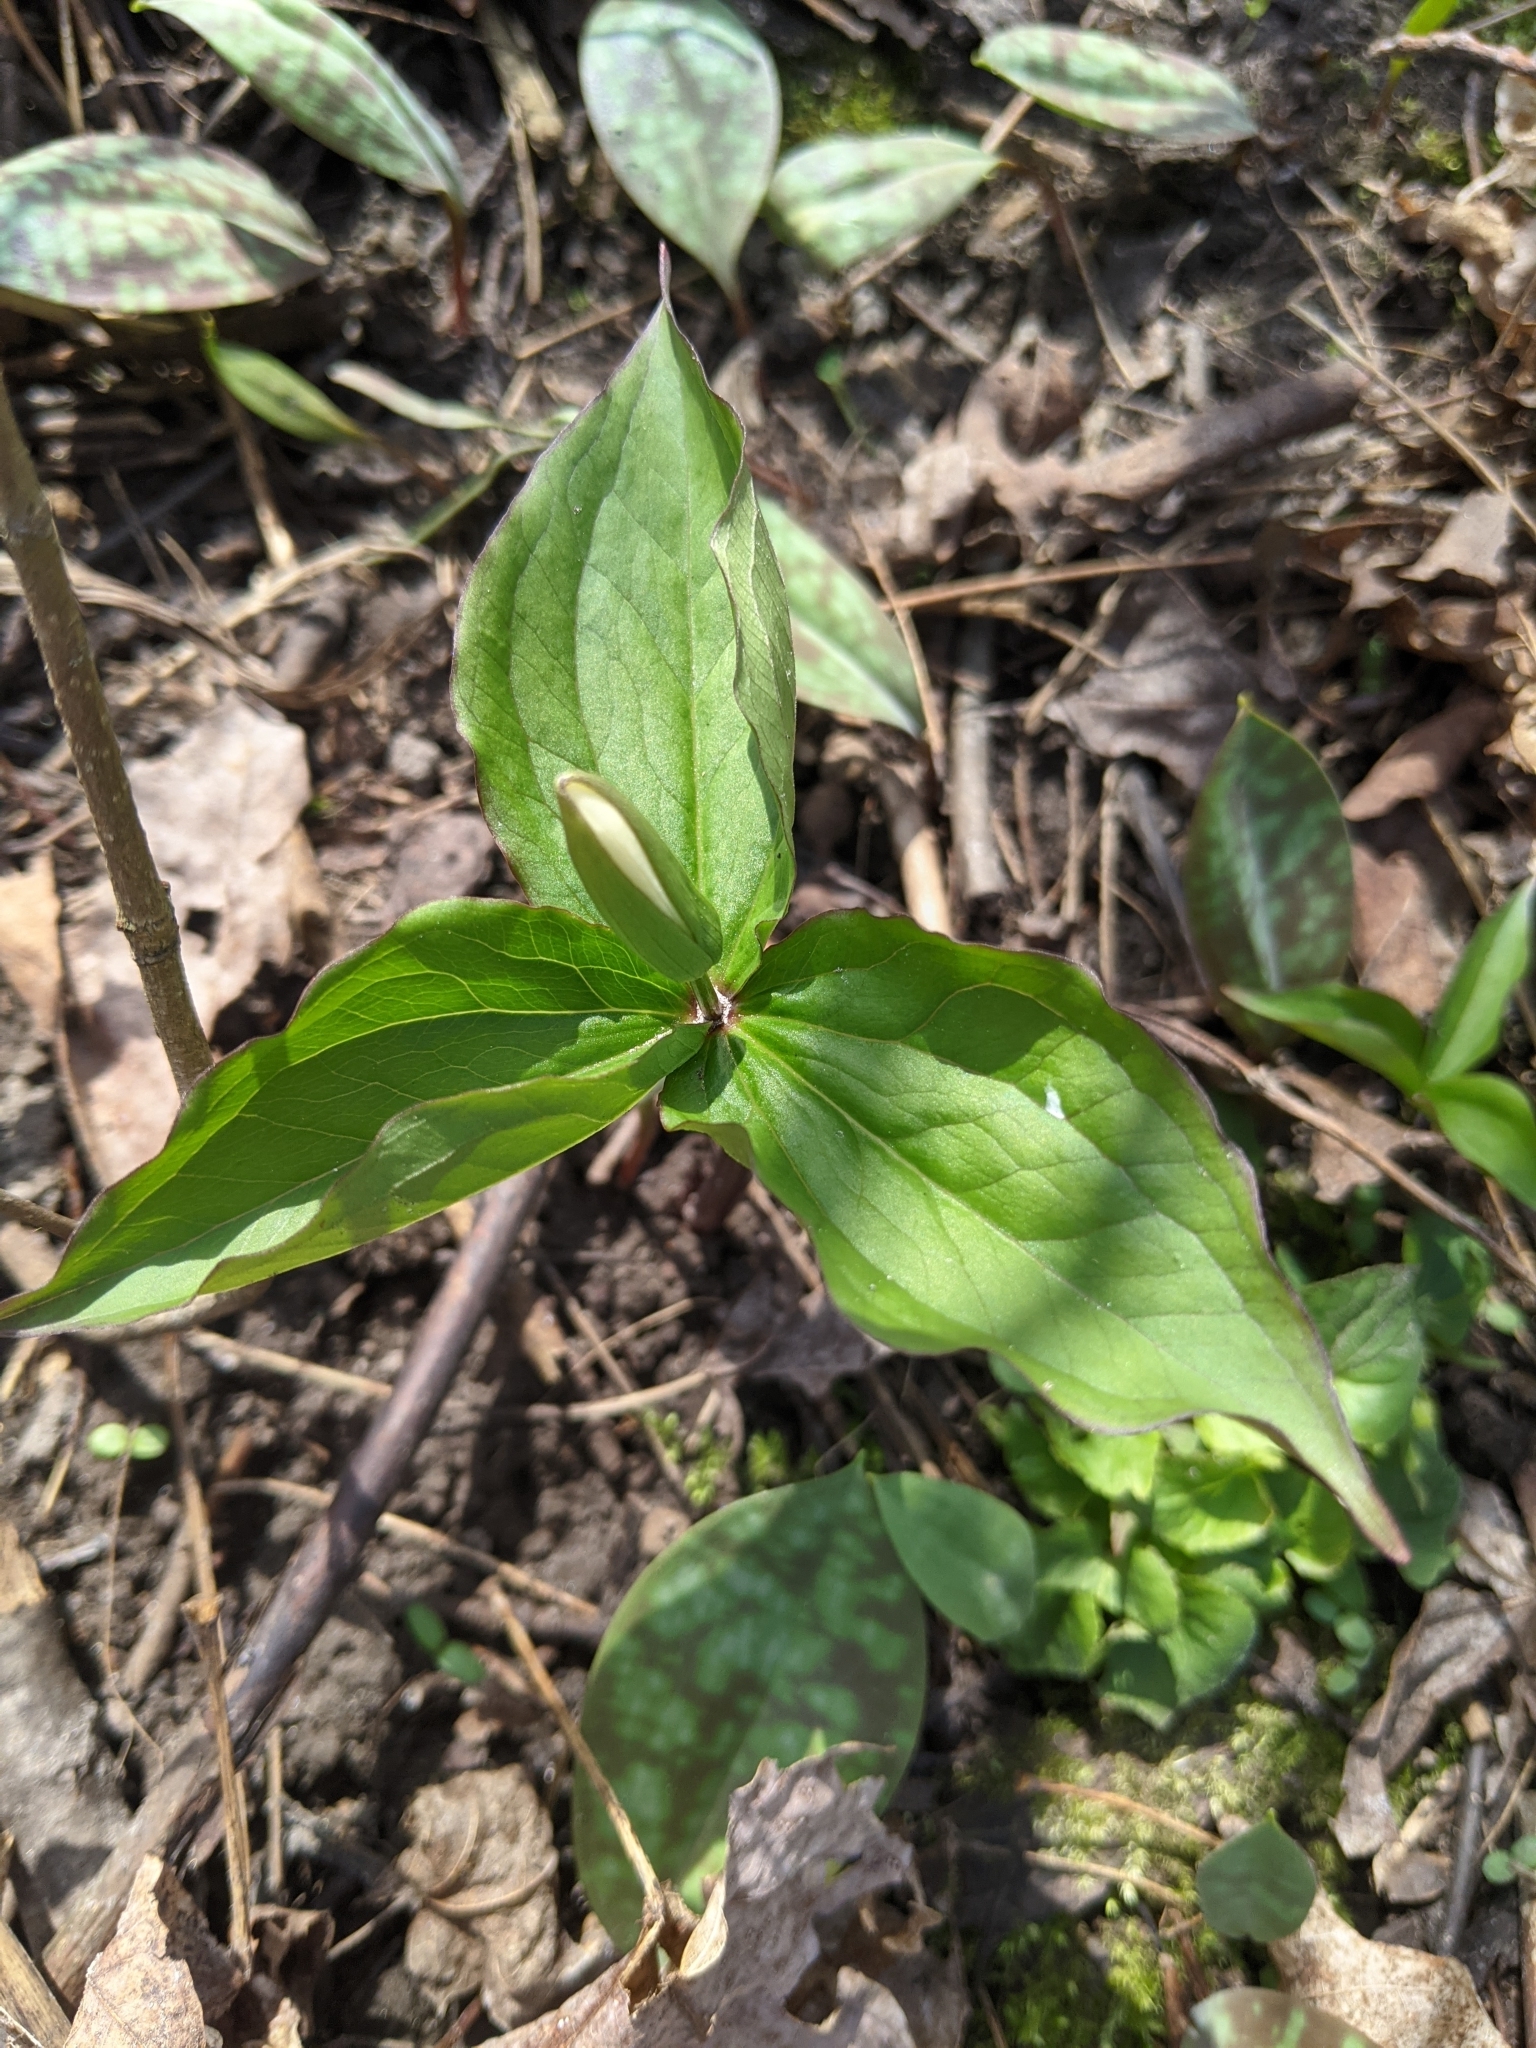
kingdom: Plantae
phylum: Tracheophyta
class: Liliopsida
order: Liliales
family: Melanthiaceae
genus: Trillium
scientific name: Trillium grandiflorum
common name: Great white trillium
